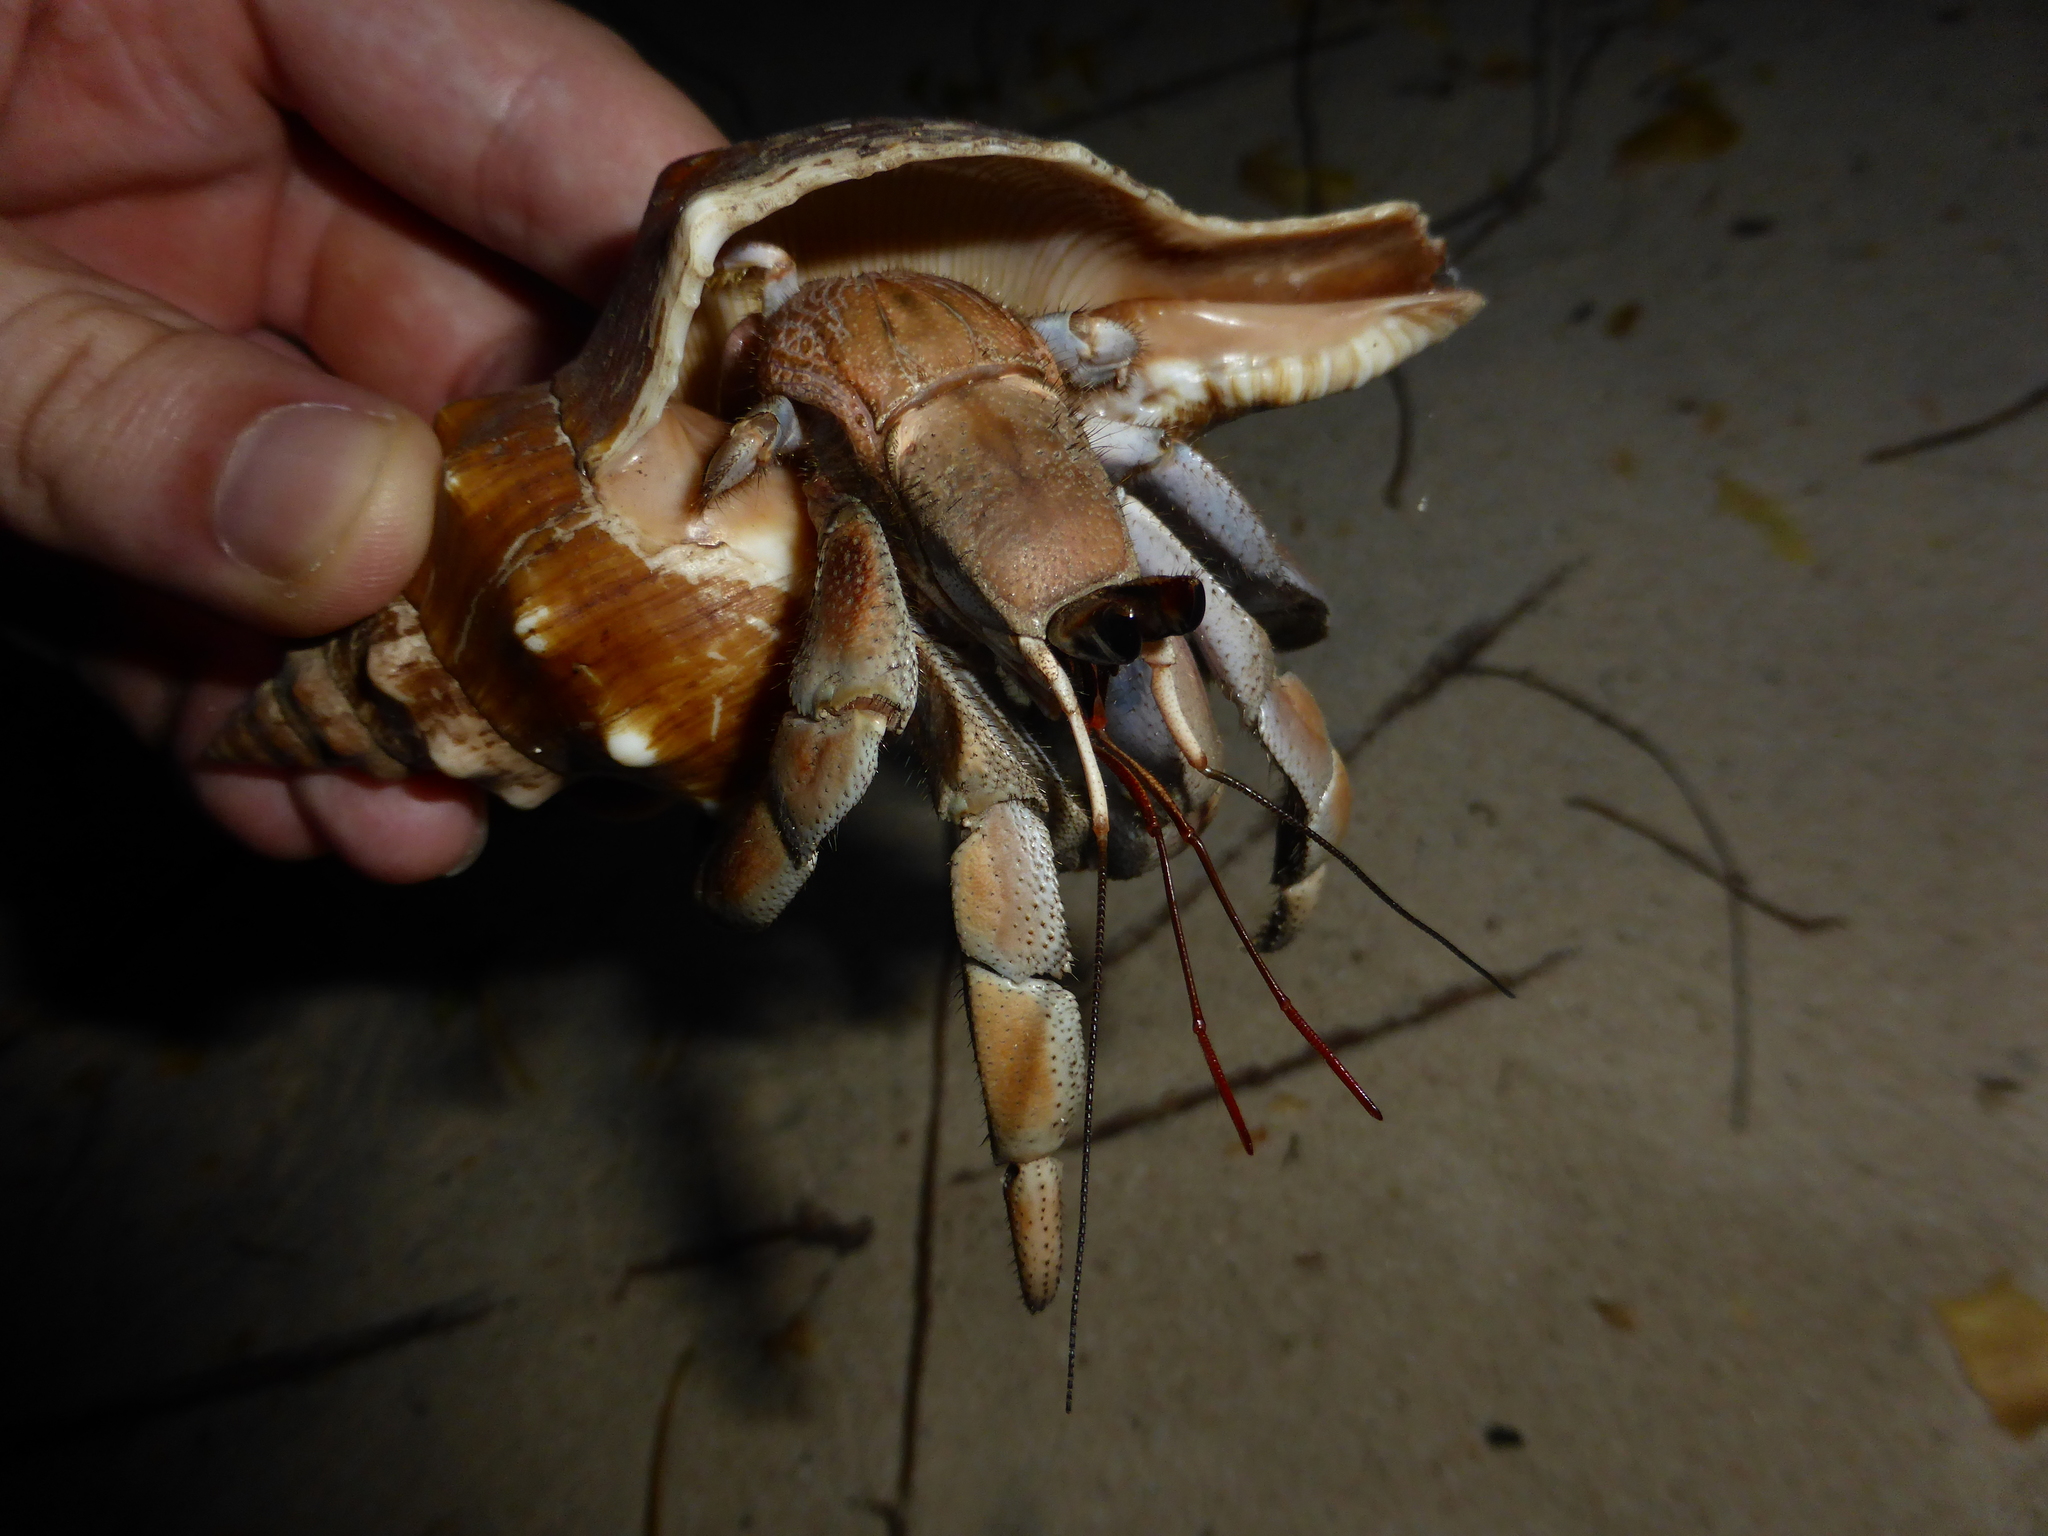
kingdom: Animalia
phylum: Arthropoda
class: Malacostraca
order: Decapoda
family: Coenobitidae
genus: Coenobita
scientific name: Coenobita violascens
